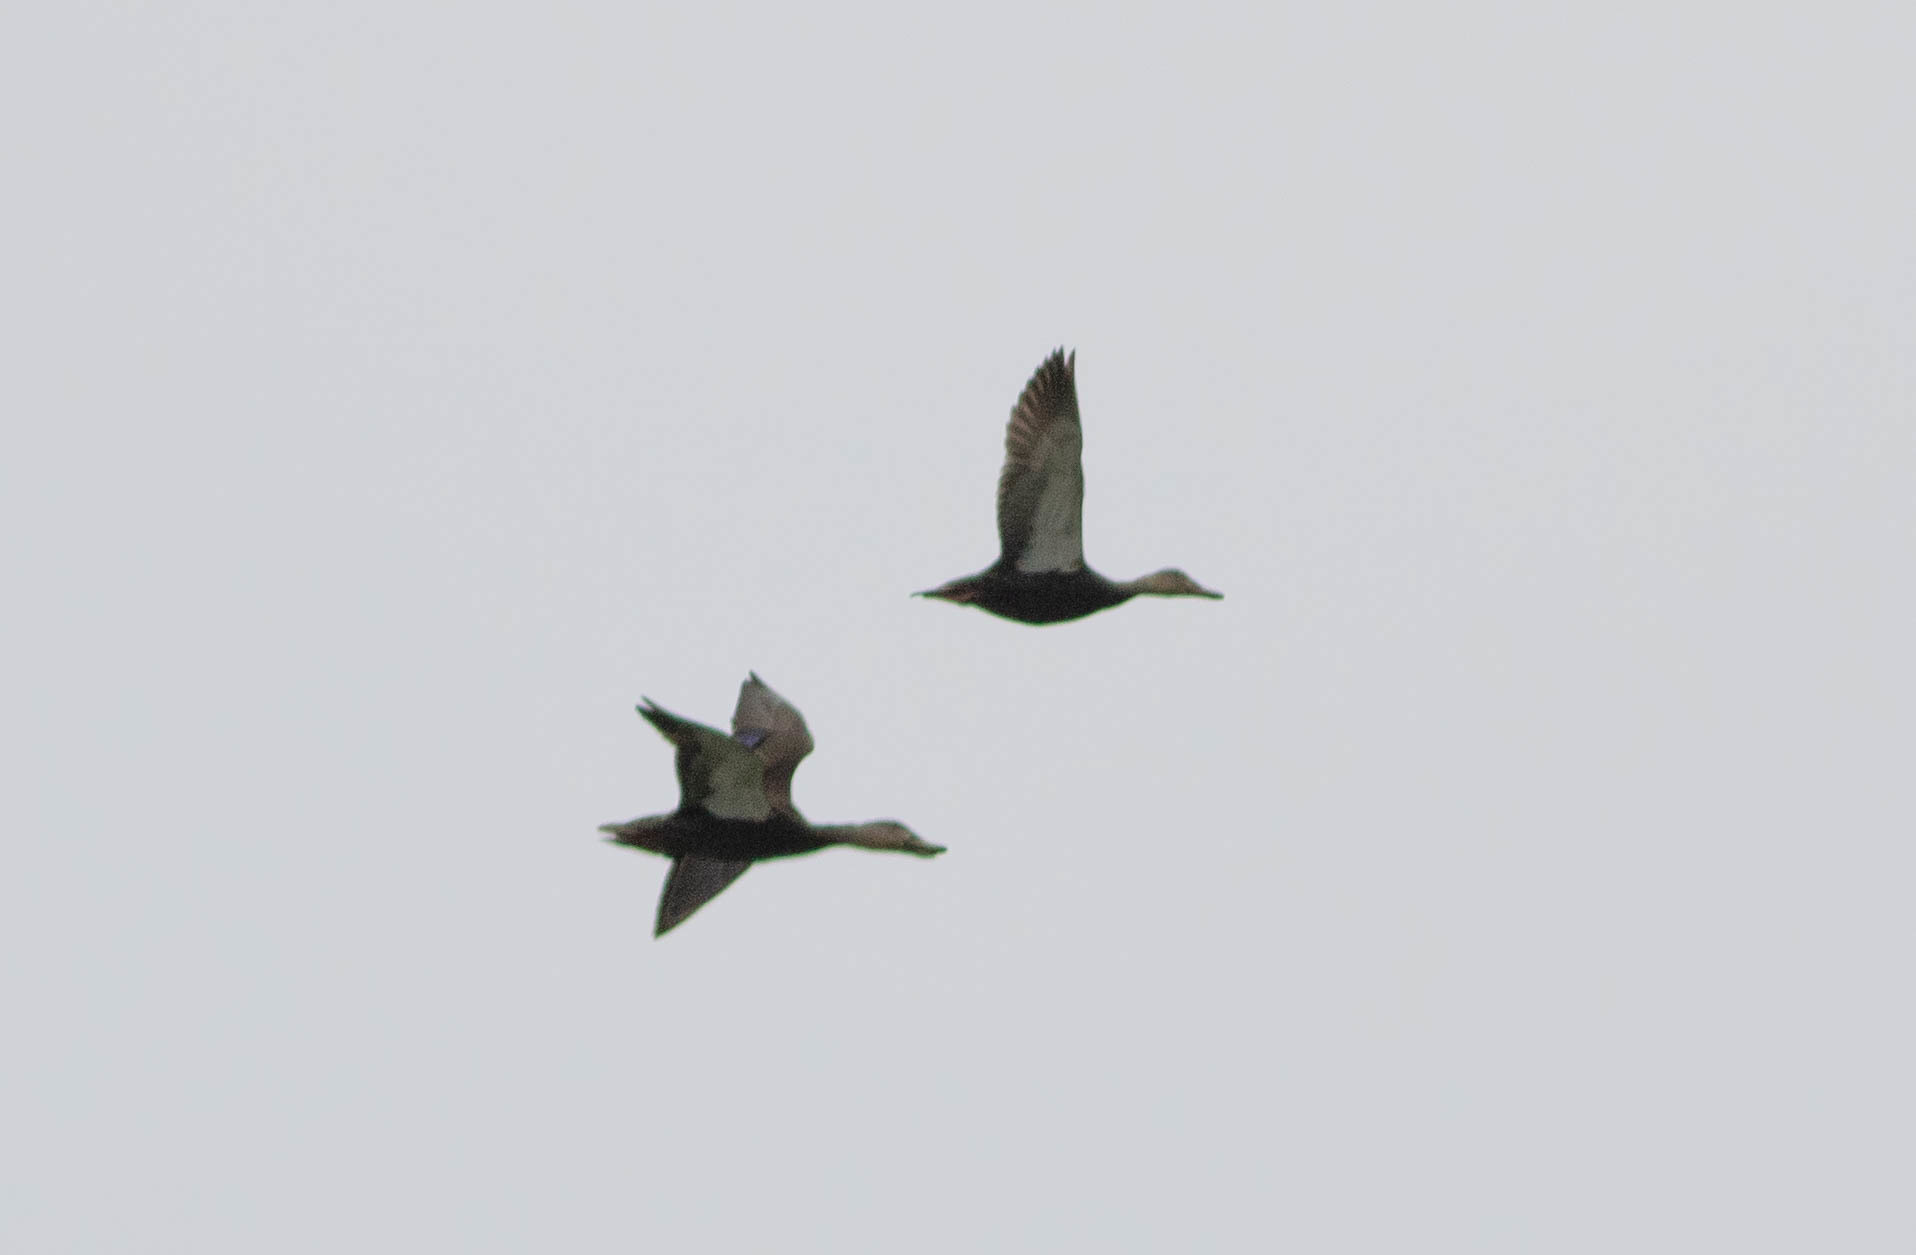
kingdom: Animalia
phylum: Chordata
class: Aves
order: Anseriformes
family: Anatidae
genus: Anas
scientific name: Anas fulvigula
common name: Mottled duck
